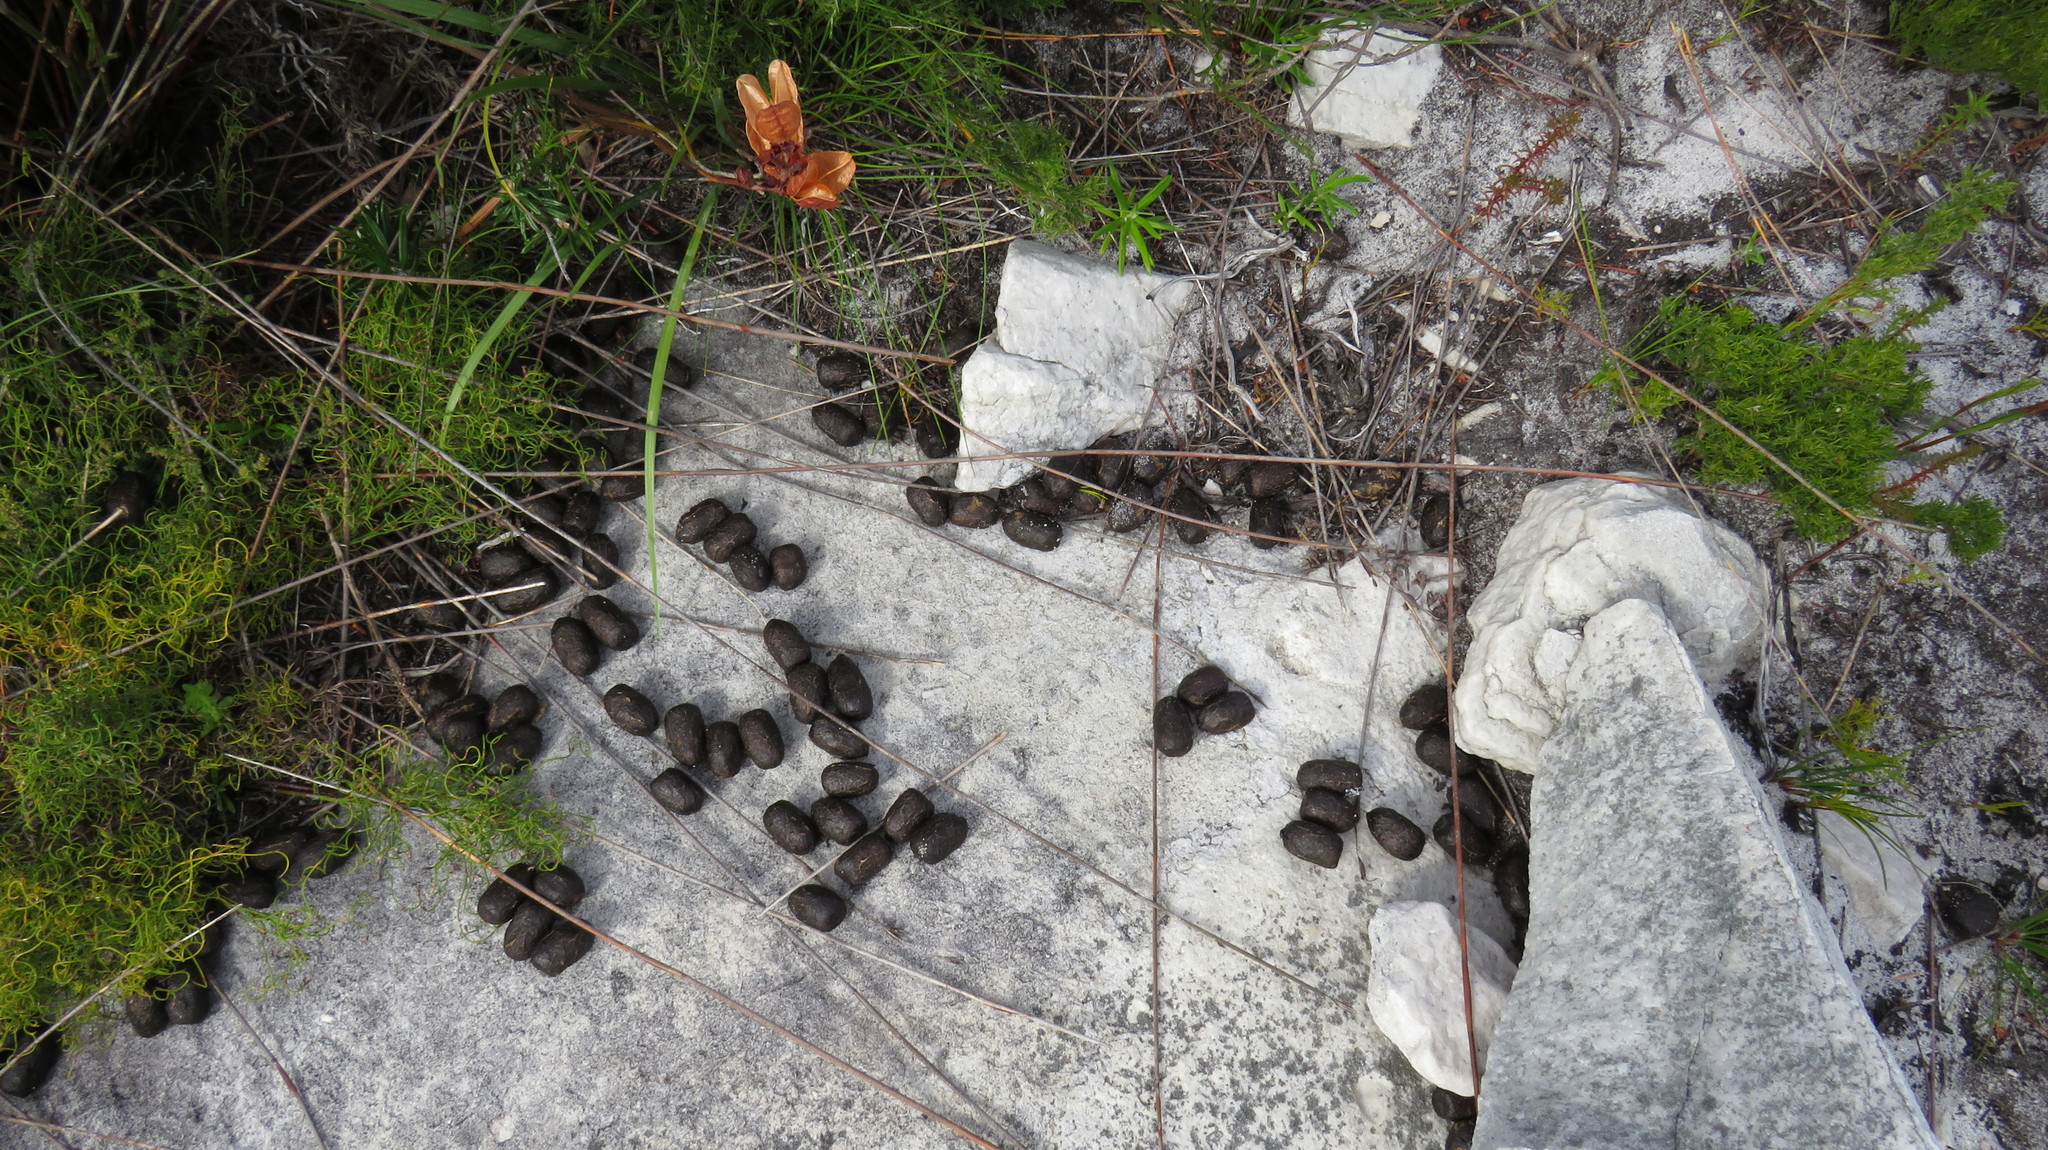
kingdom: Animalia
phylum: Chordata
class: Mammalia
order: Artiodactyla
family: Bovidae
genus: Taurotragus
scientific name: Taurotragus oryx
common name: Common eland
